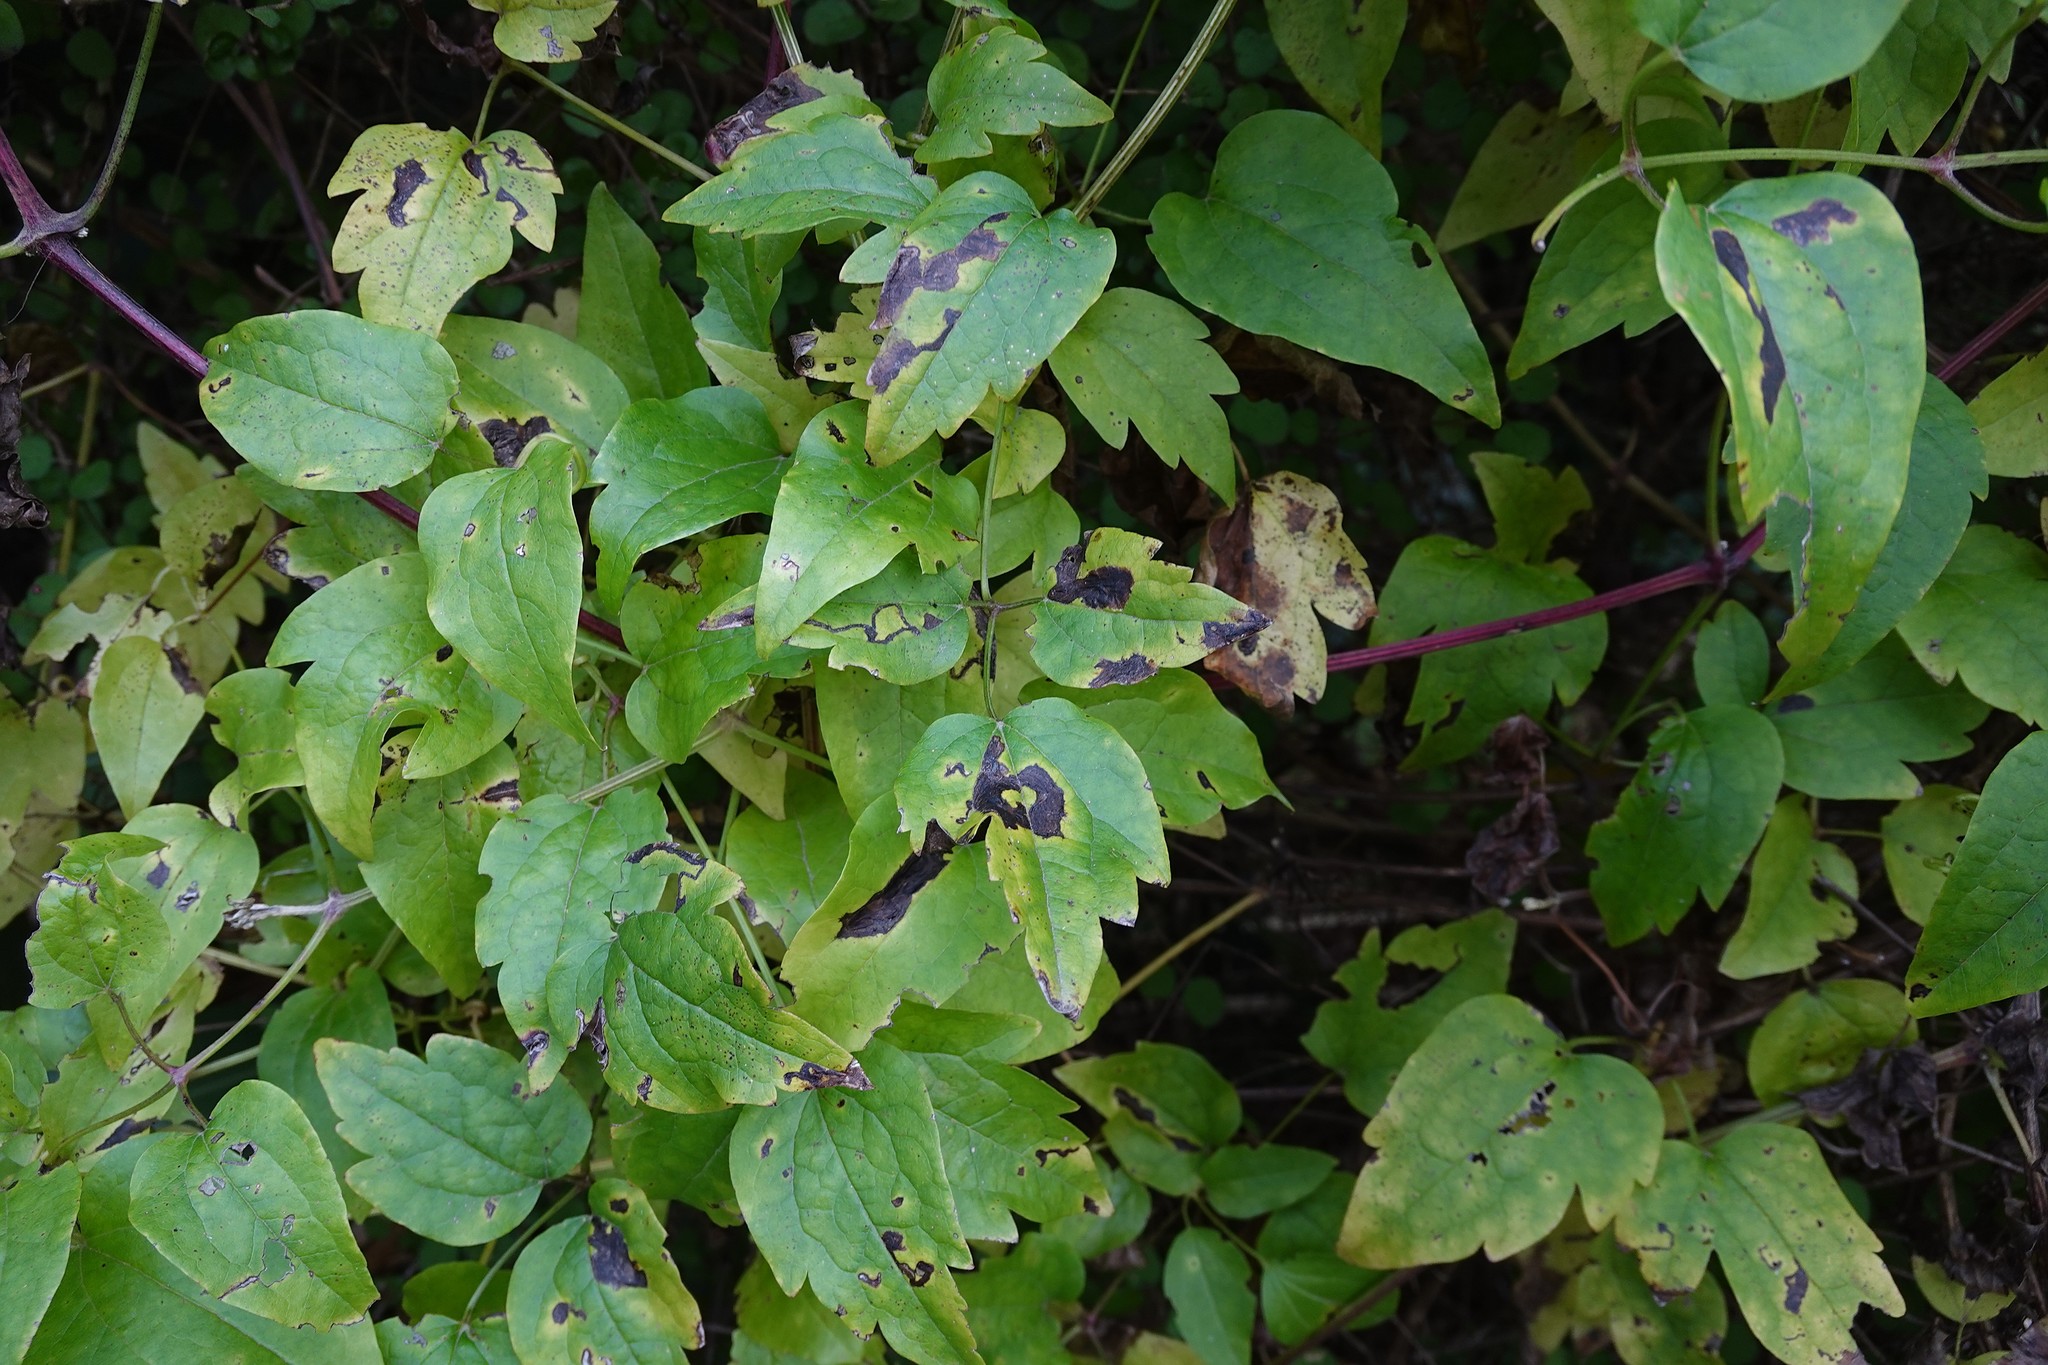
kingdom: Plantae
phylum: Tracheophyta
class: Magnoliopsida
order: Ranunculales
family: Ranunculaceae
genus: Clematis
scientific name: Clematis vitalba
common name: Evergreen clematis
